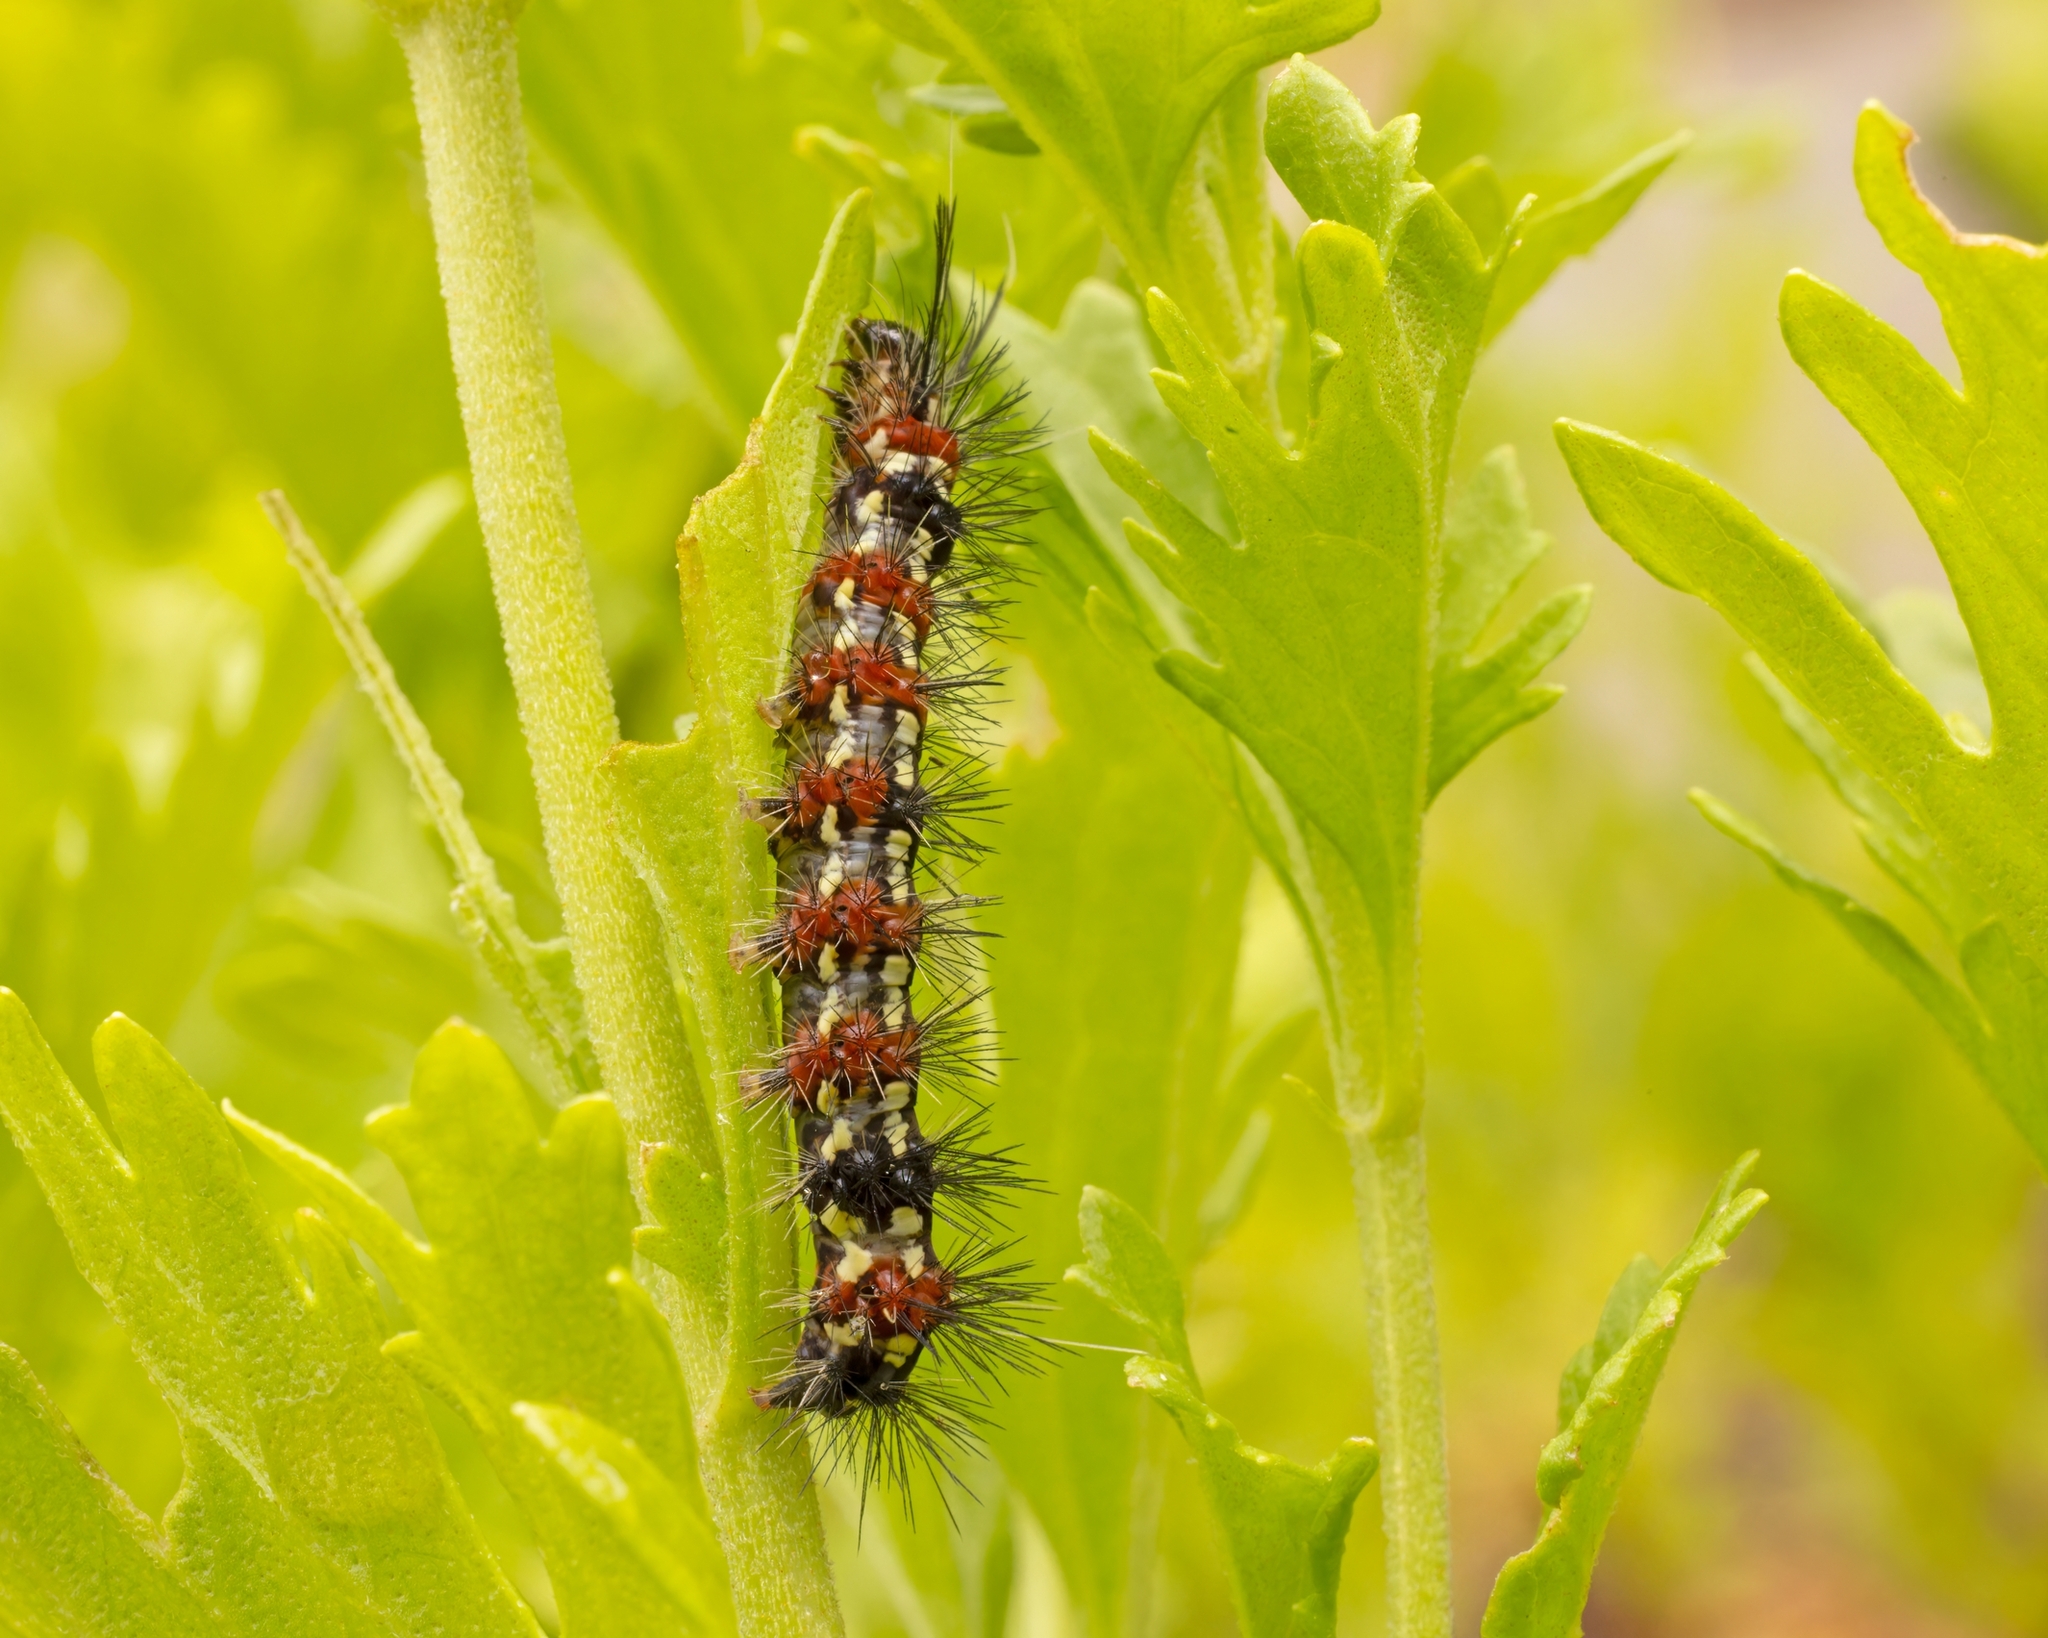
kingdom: Animalia
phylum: Arthropoda
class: Insecta
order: Lepidoptera
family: Erebidae
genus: Pareuchaetes
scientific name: Pareuchaetes insulata
